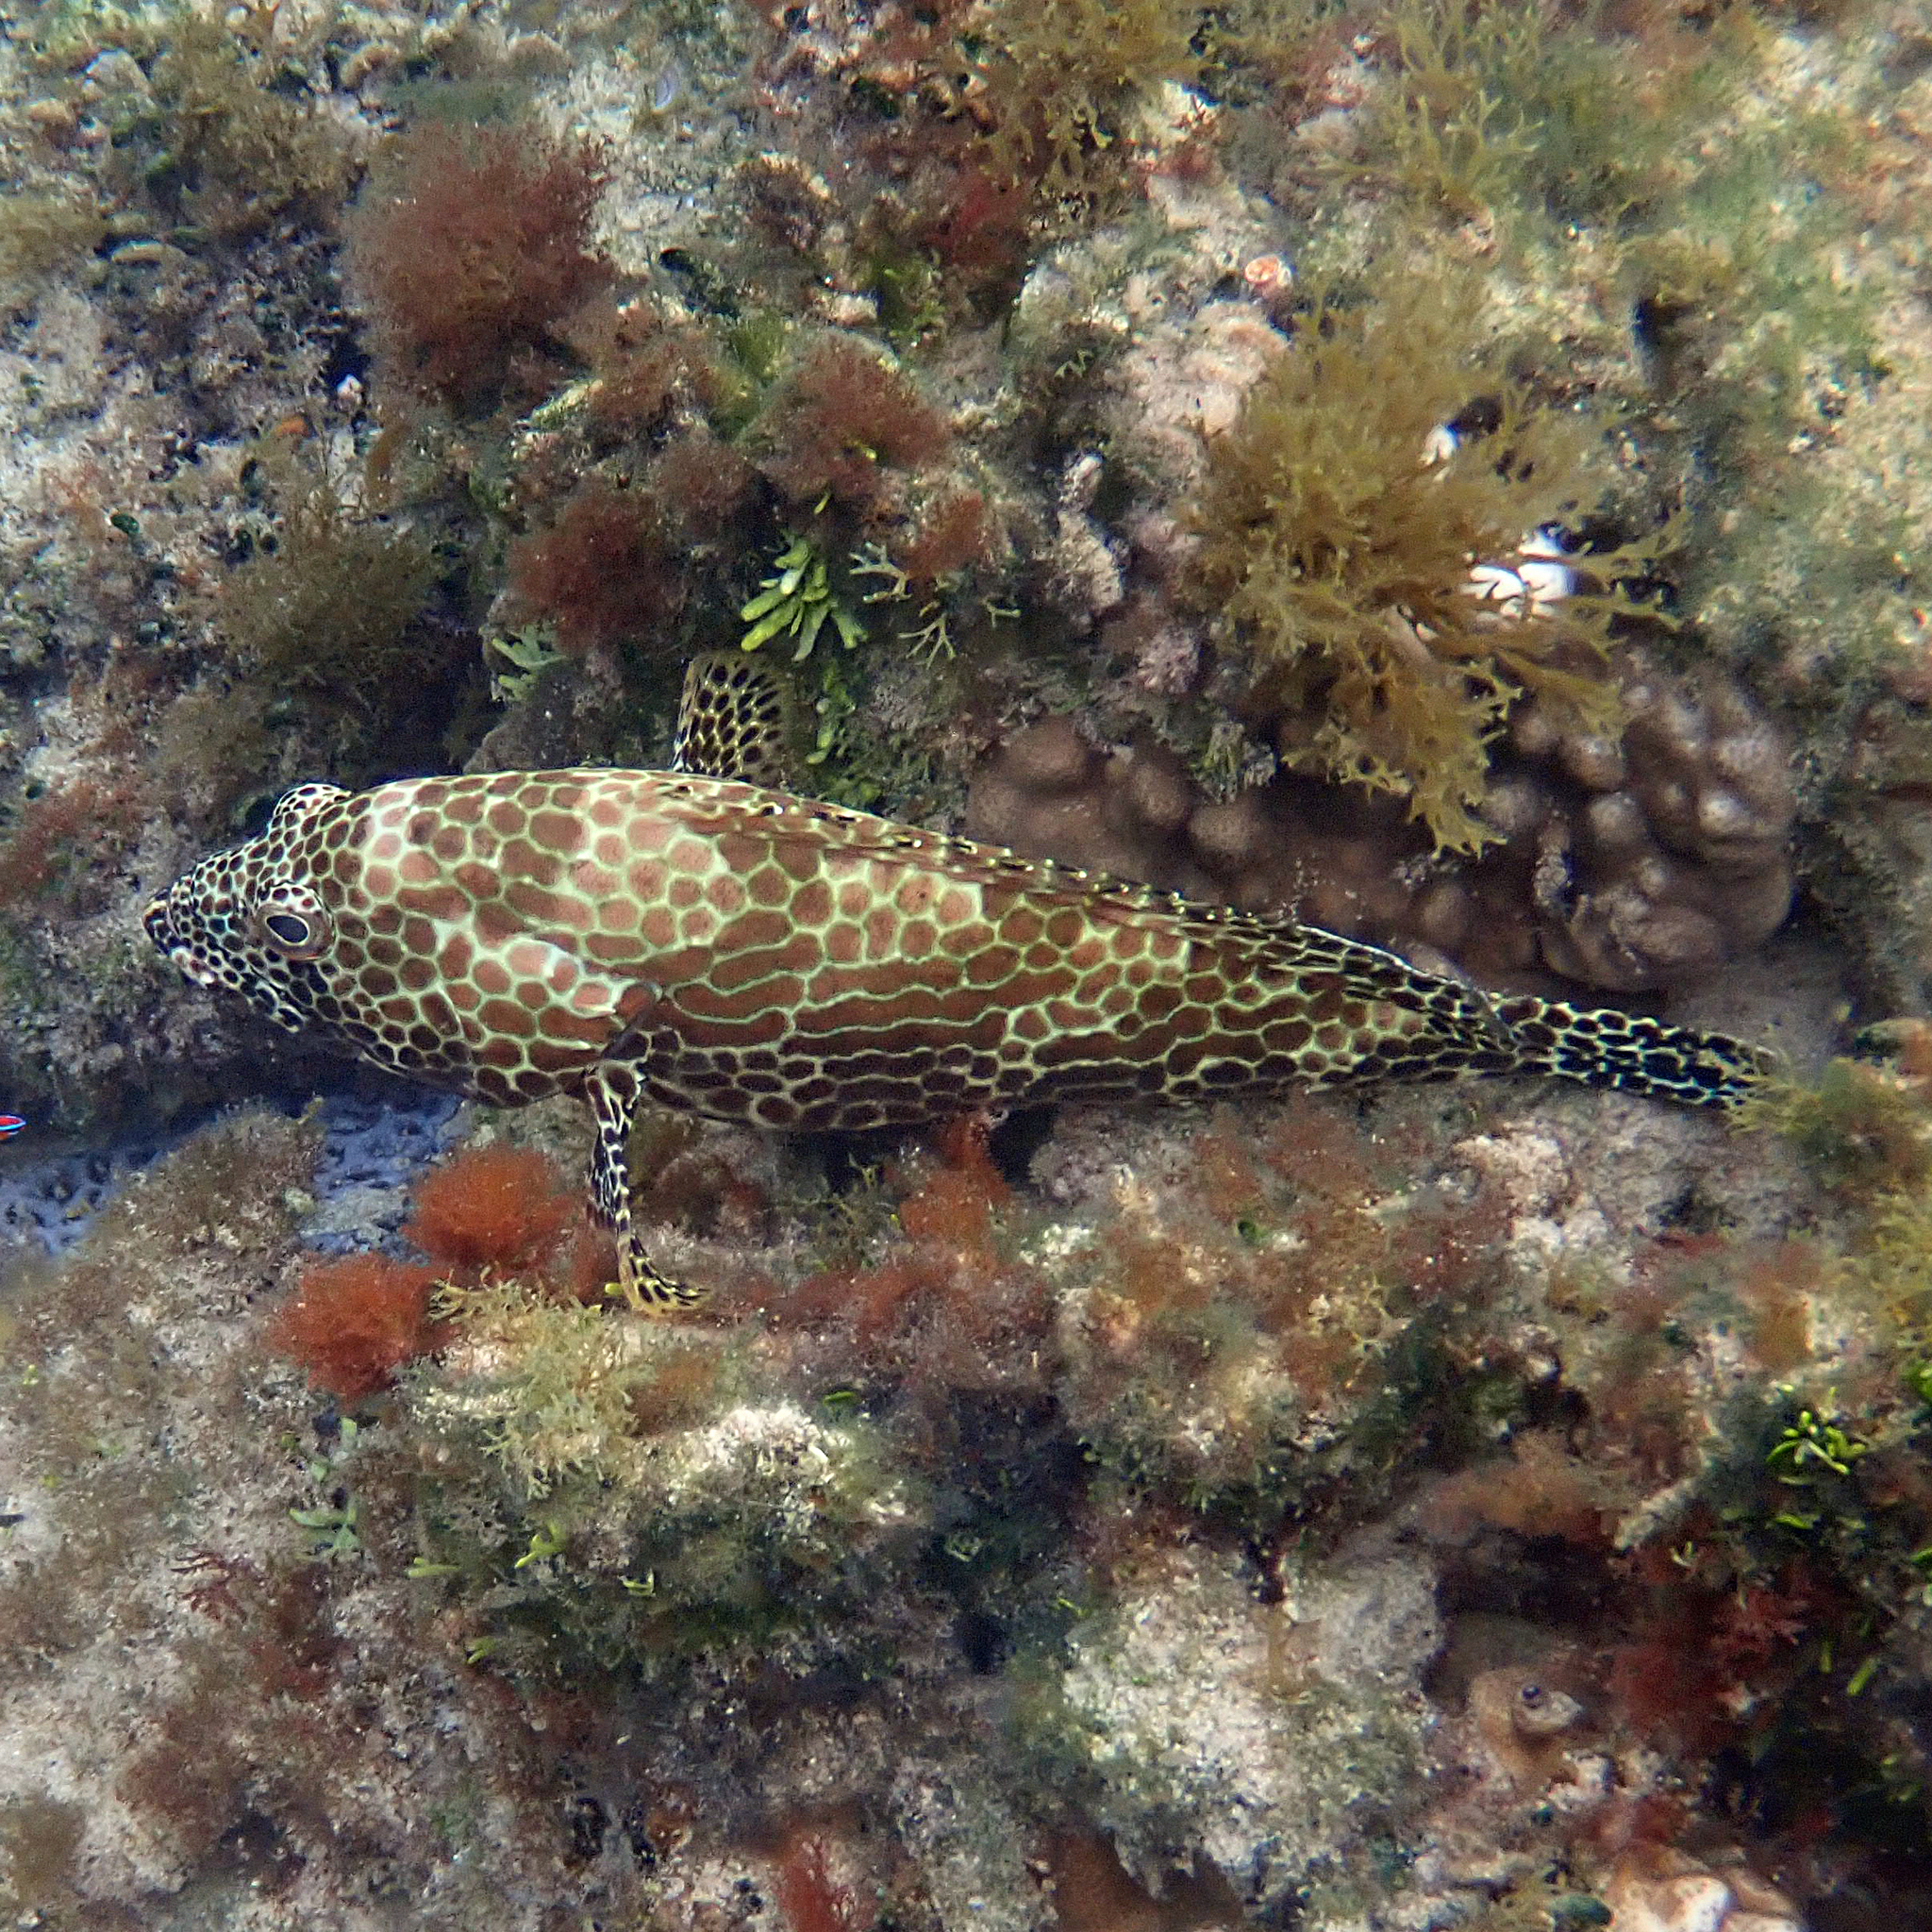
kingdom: Animalia
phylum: Chordata
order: Perciformes
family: Serranidae
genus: Epinephelus
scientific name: Epinephelus merra
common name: Honeycomb grouper
